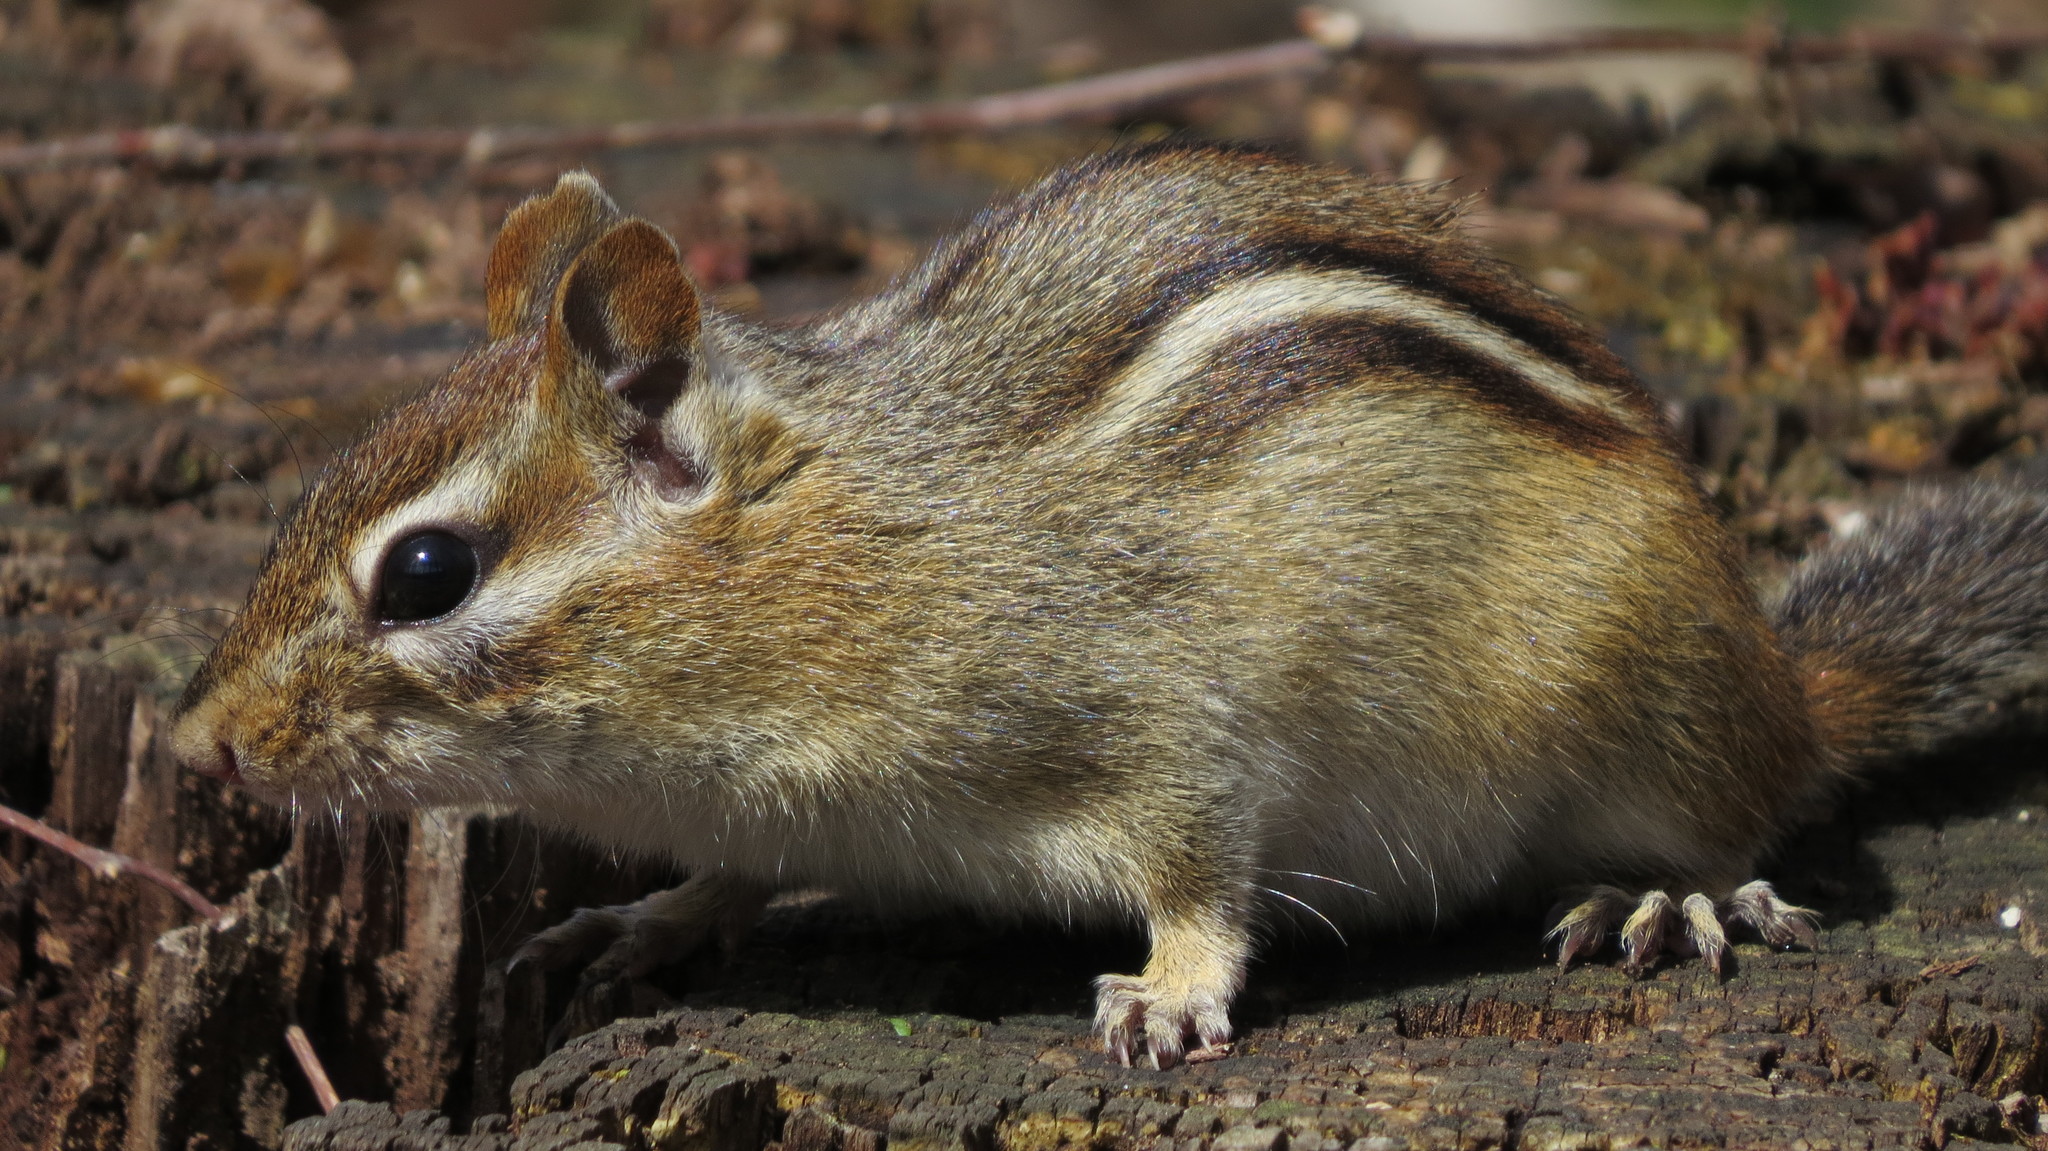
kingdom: Animalia
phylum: Chordata
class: Mammalia
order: Rodentia
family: Sciuridae
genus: Tamias
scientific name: Tamias striatus
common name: Eastern chipmunk
